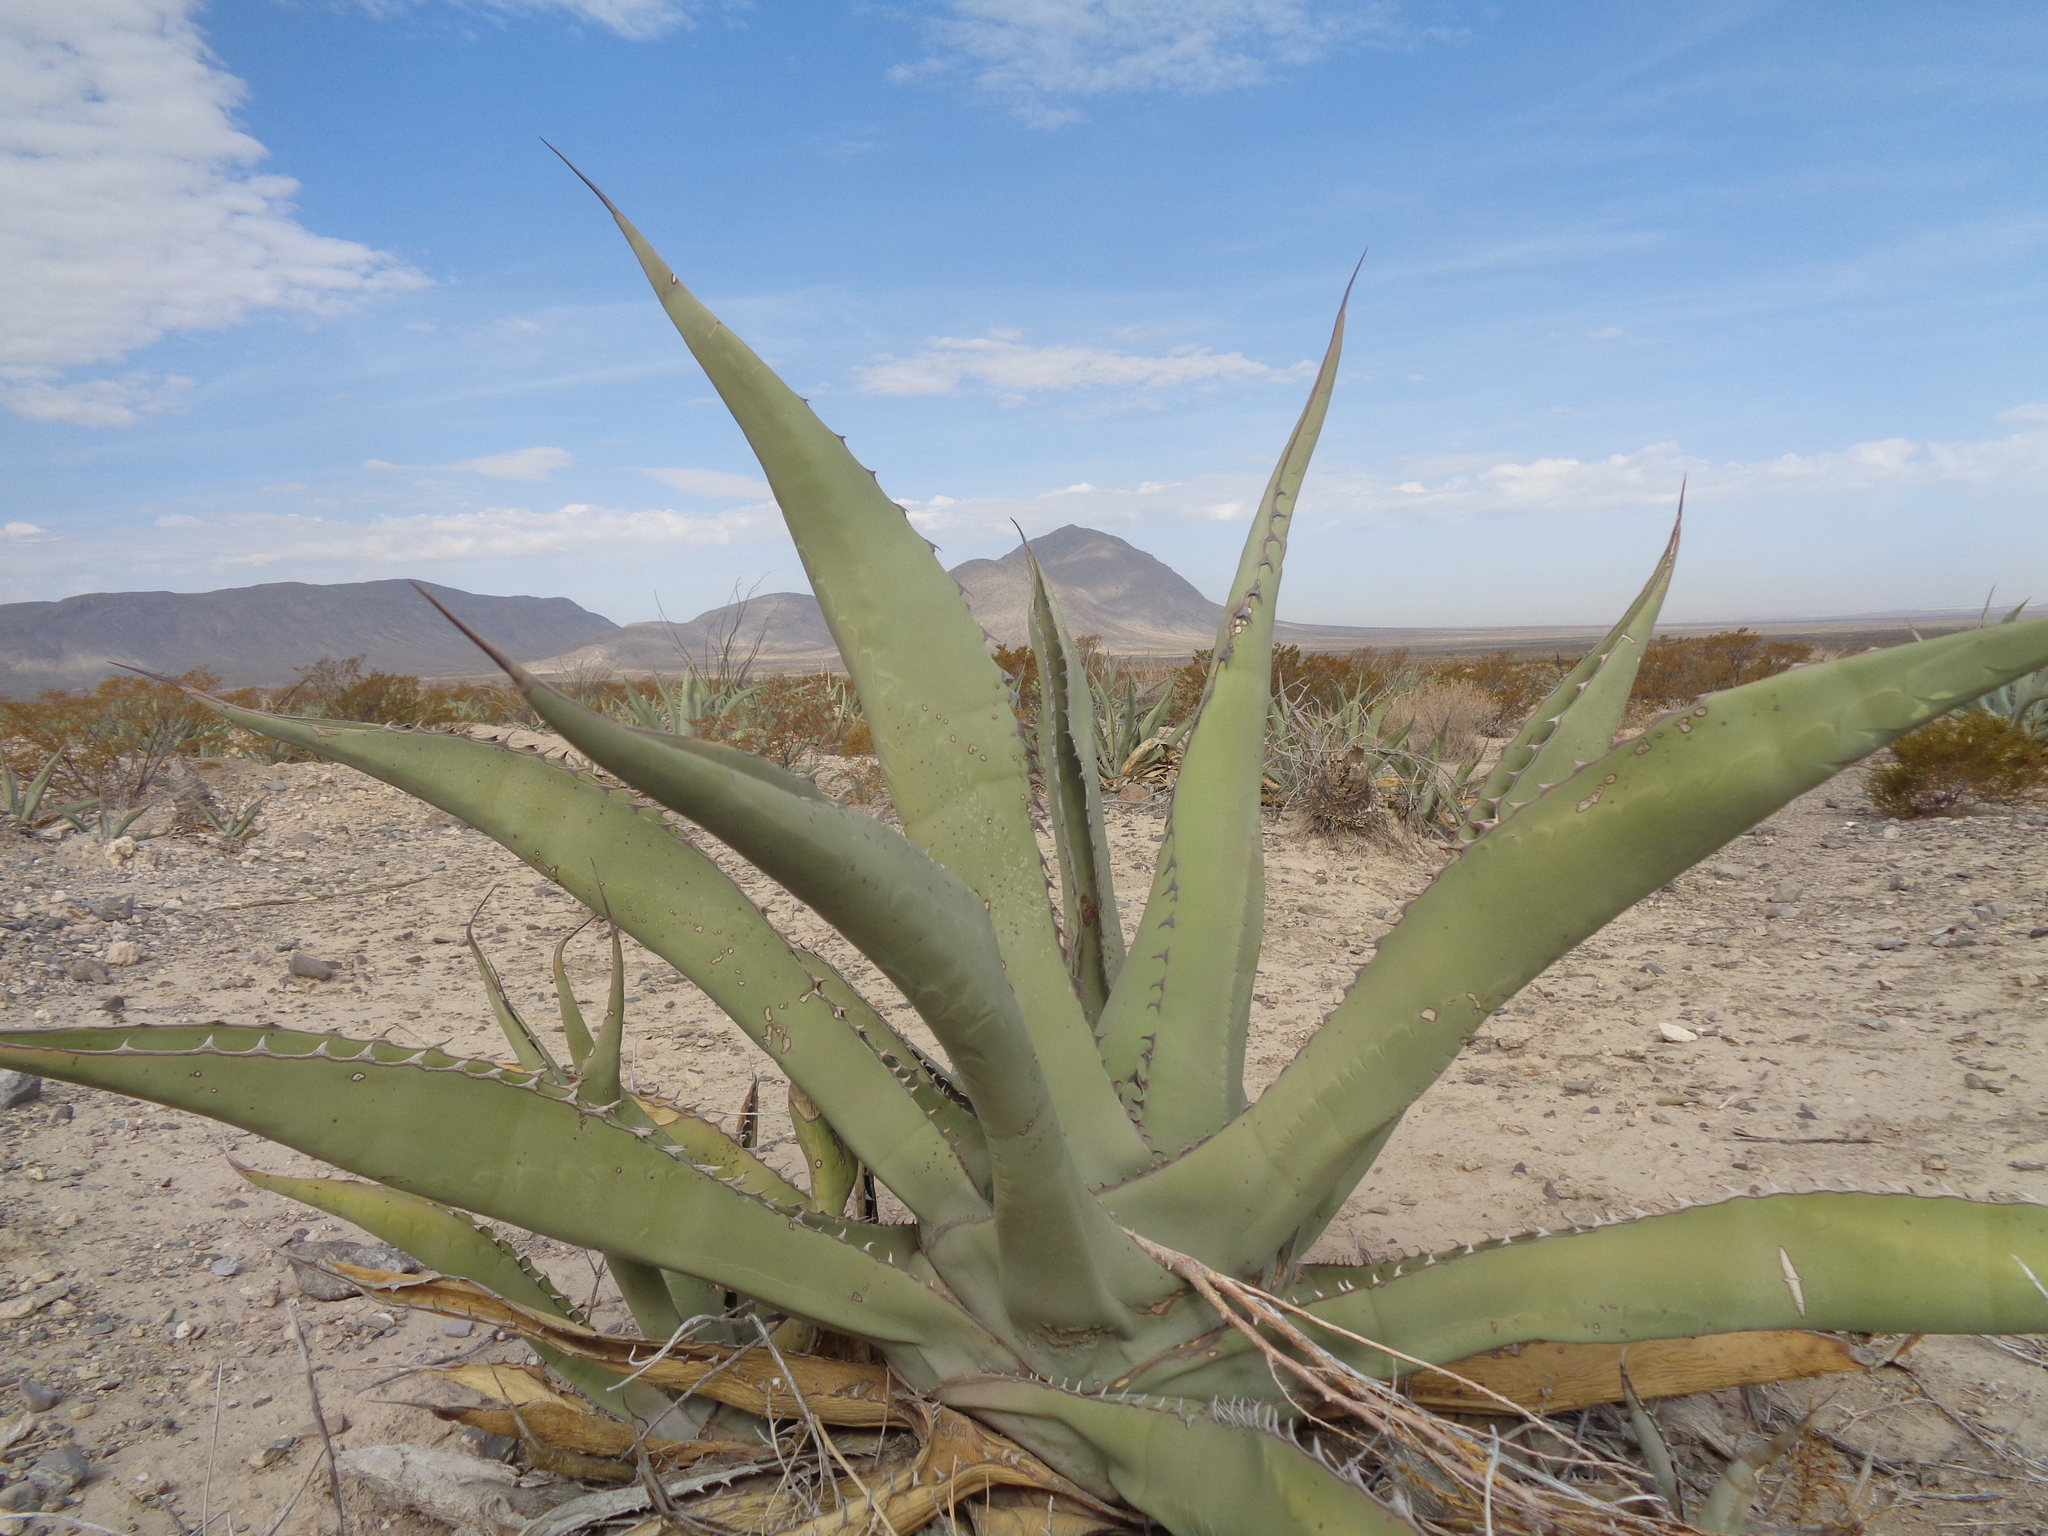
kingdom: Plantae
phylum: Tracheophyta
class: Liliopsida
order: Asparagales
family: Asparagaceae
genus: Agave
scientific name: Agave asperrima
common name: Rough agave
